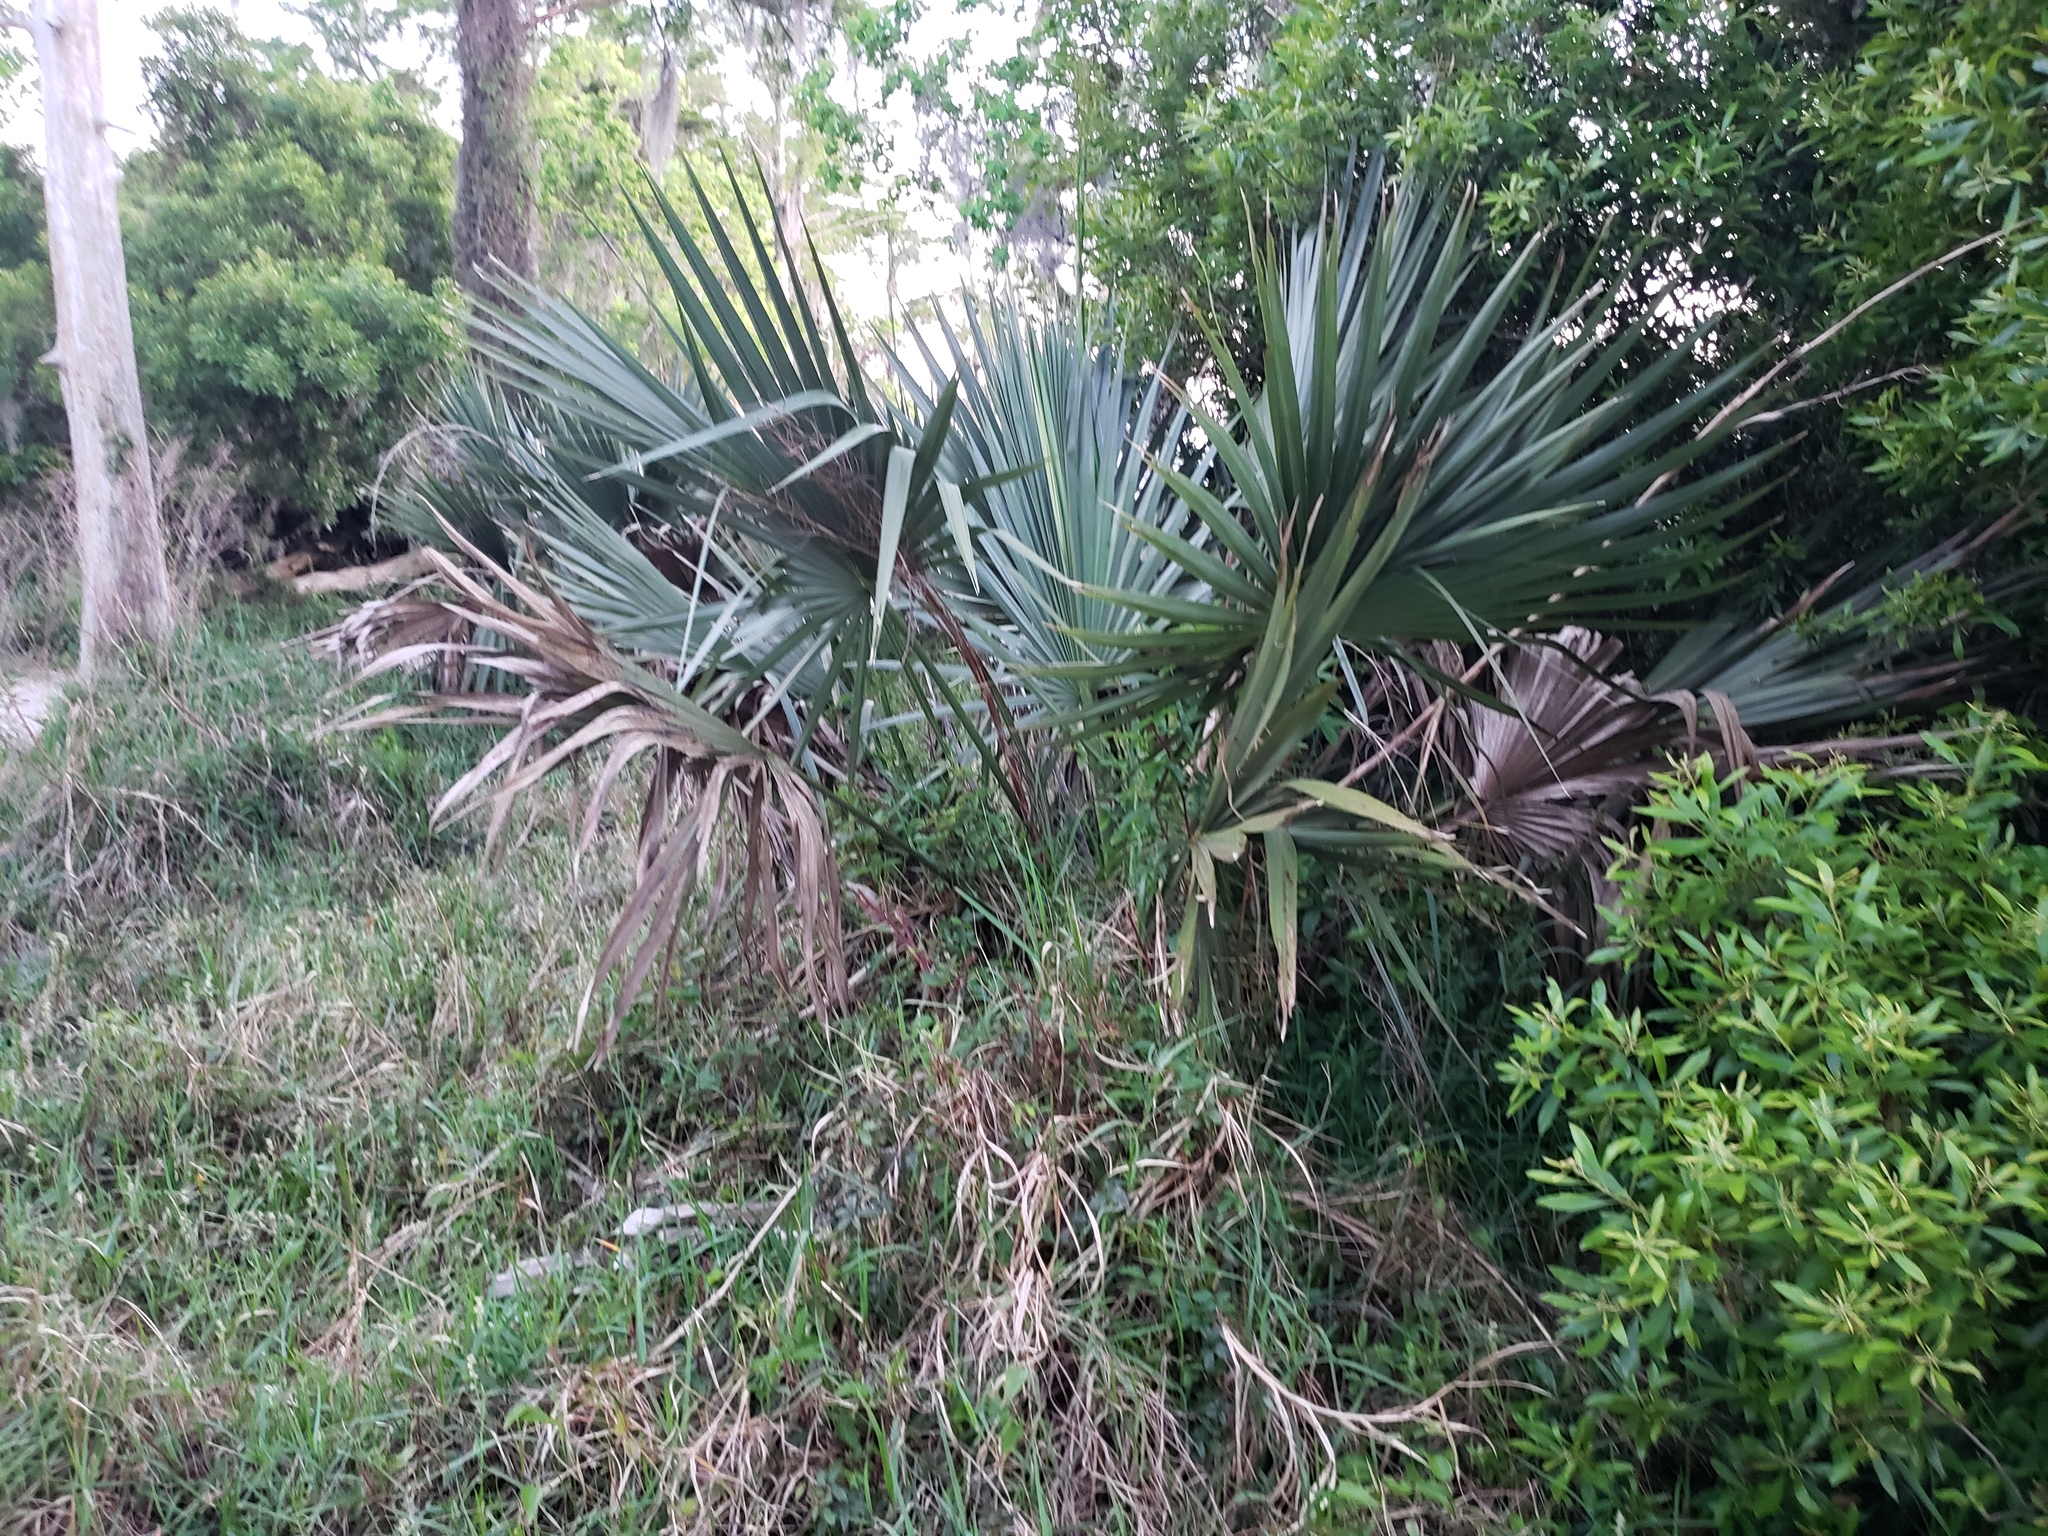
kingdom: Plantae
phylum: Tracheophyta
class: Liliopsida
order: Arecales
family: Arecaceae
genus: Sabal
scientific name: Sabal minor
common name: Dwarf palmetto
